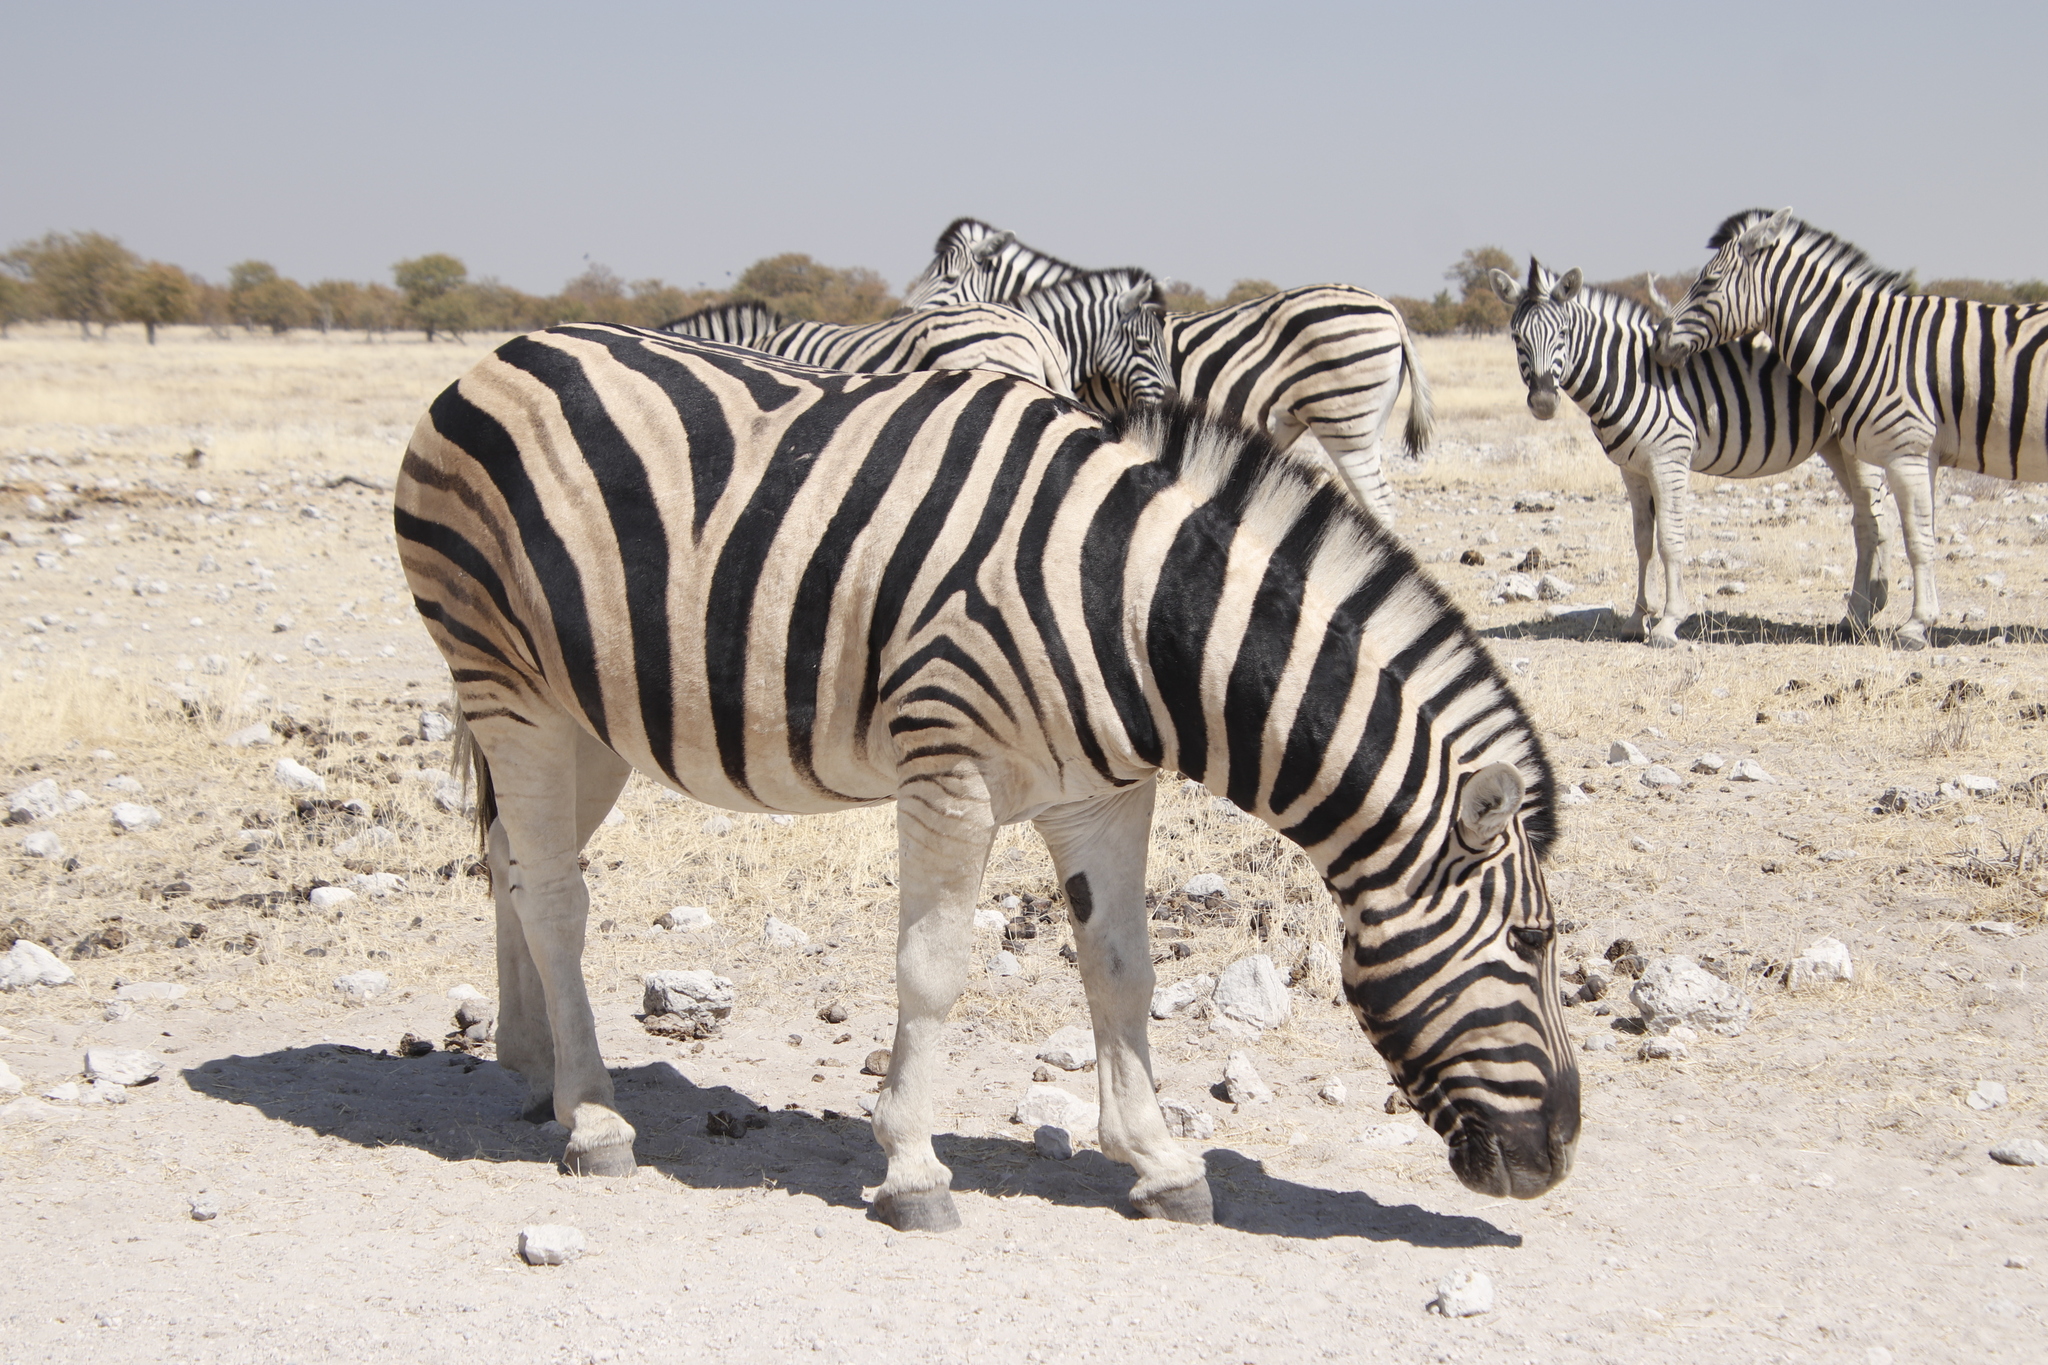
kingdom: Animalia
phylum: Chordata
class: Mammalia
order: Perissodactyla
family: Equidae
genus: Equus
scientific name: Equus quagga
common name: Plains zebra
